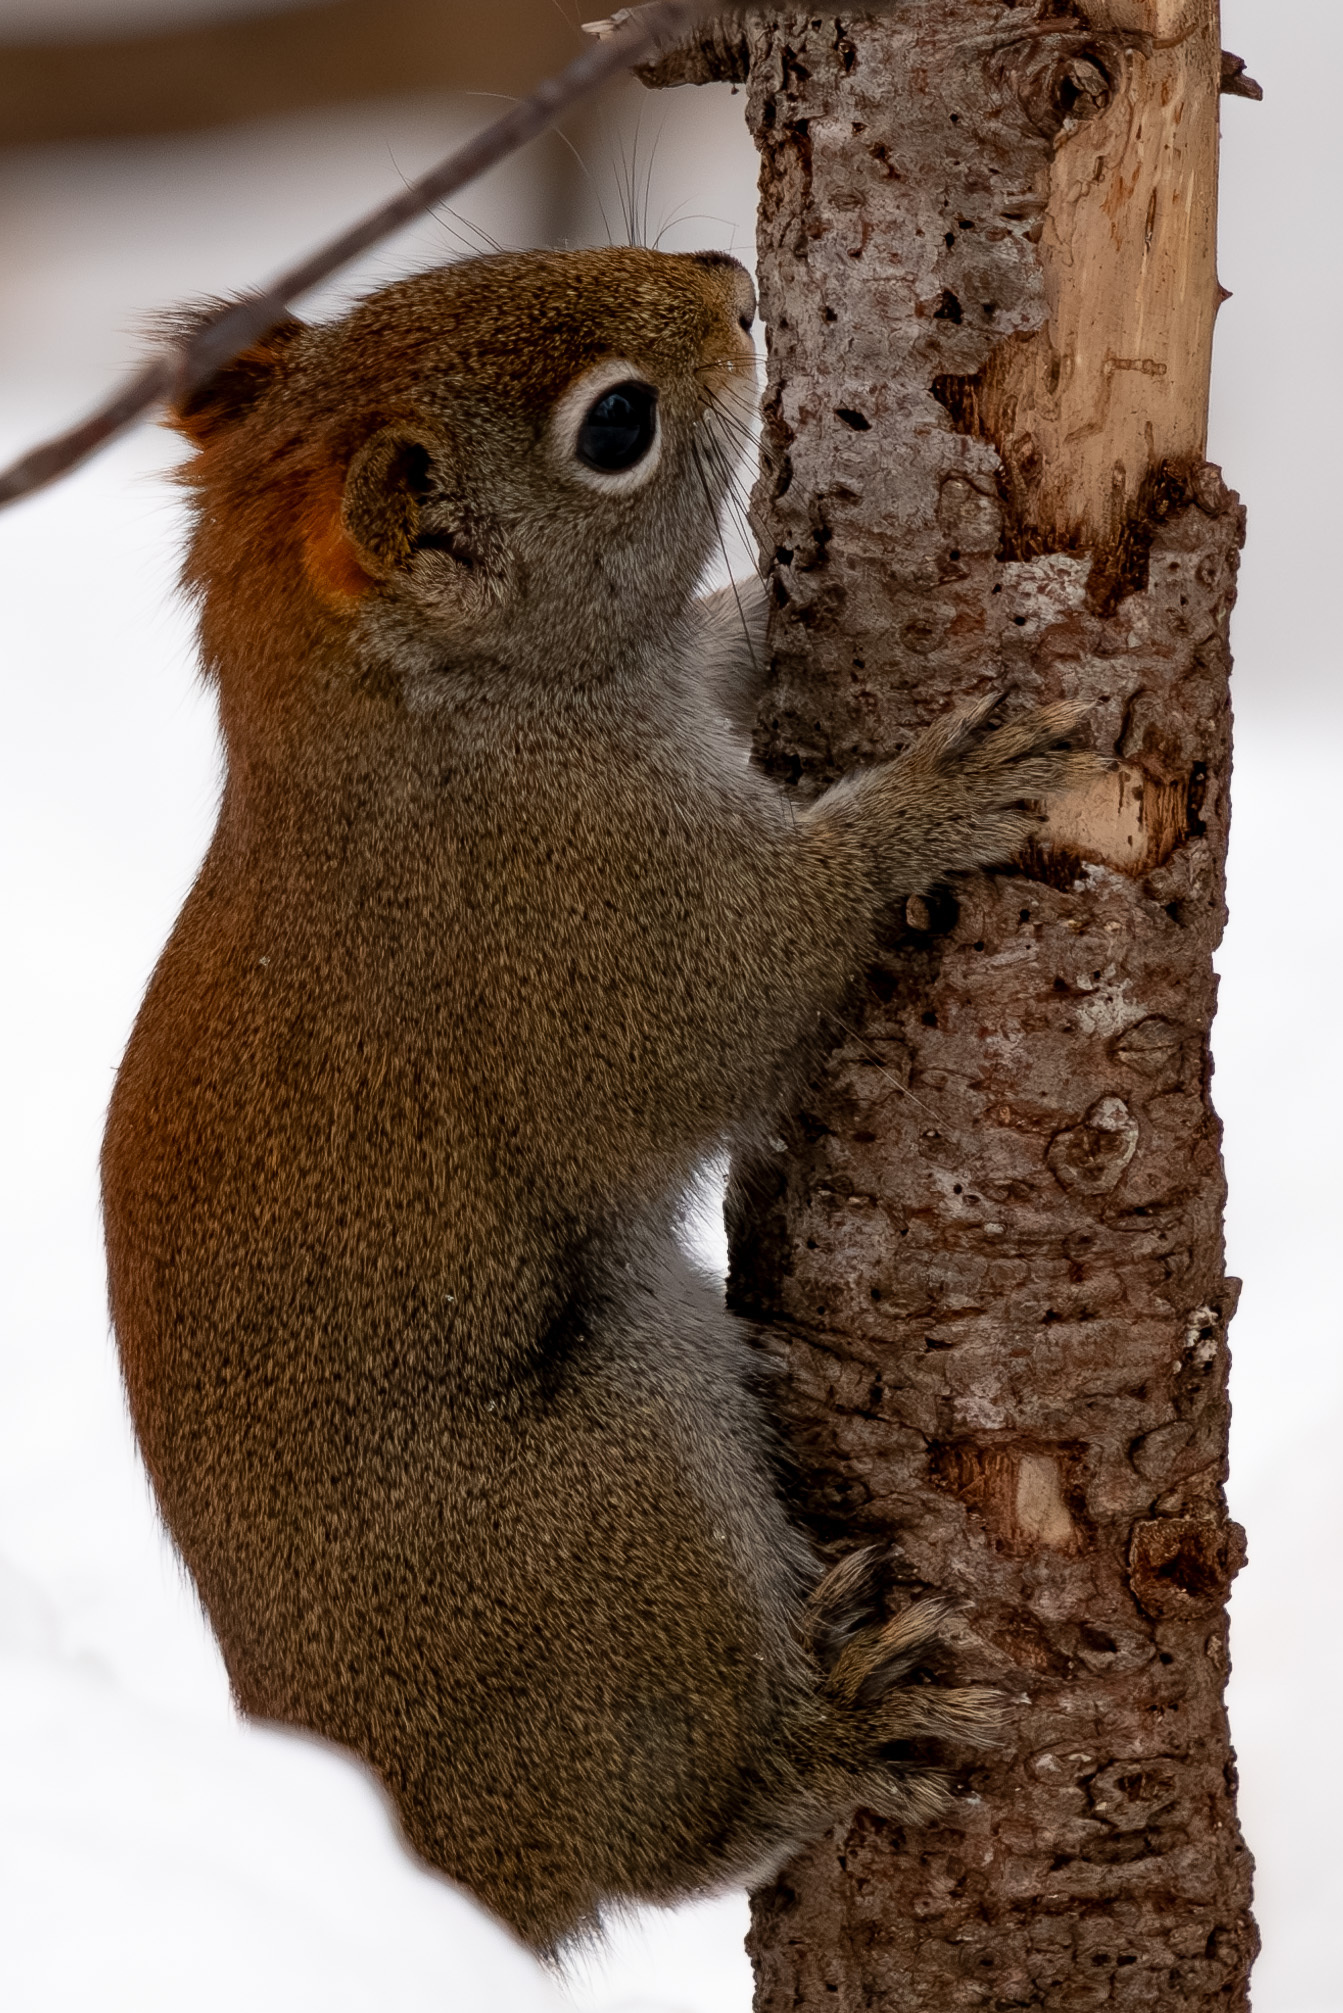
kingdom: Animalia
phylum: Chordata
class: Mammalia
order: Rodentia
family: Sciuridae
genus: Tamiasciurus
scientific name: Tamiasciurus hudsonicus
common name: Red squirrel
